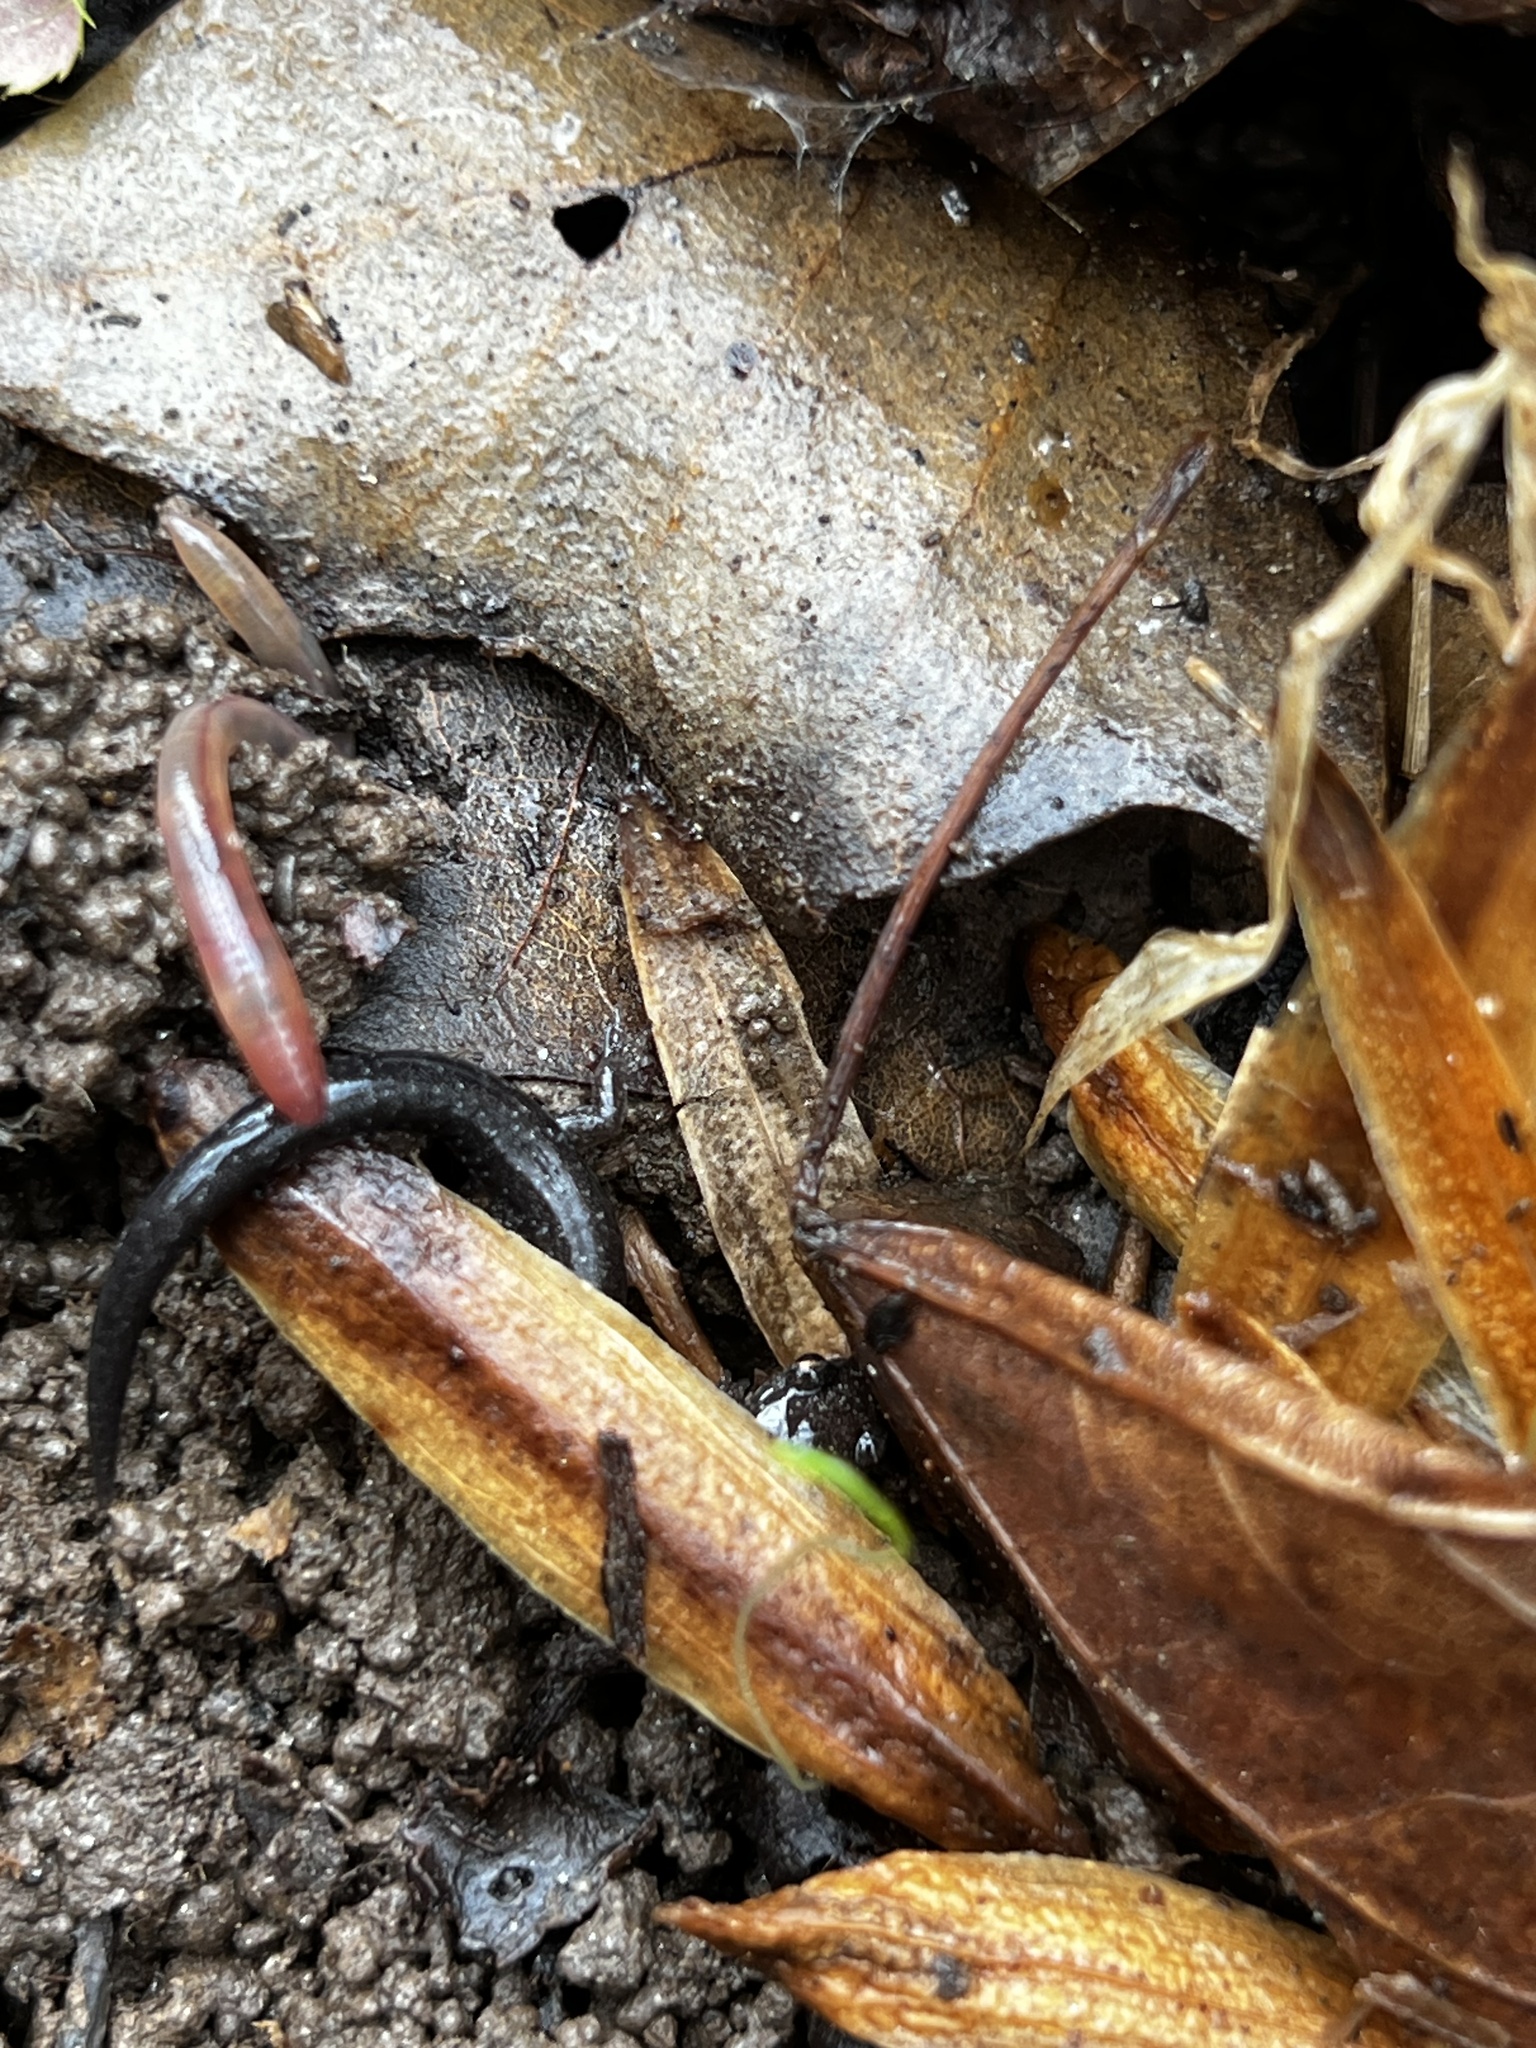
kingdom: Animalia
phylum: Chordata
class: Amphibia
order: Caudata
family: Plethodontidae
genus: Plethodon
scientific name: Plethodon cinereus
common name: Redback salamander
